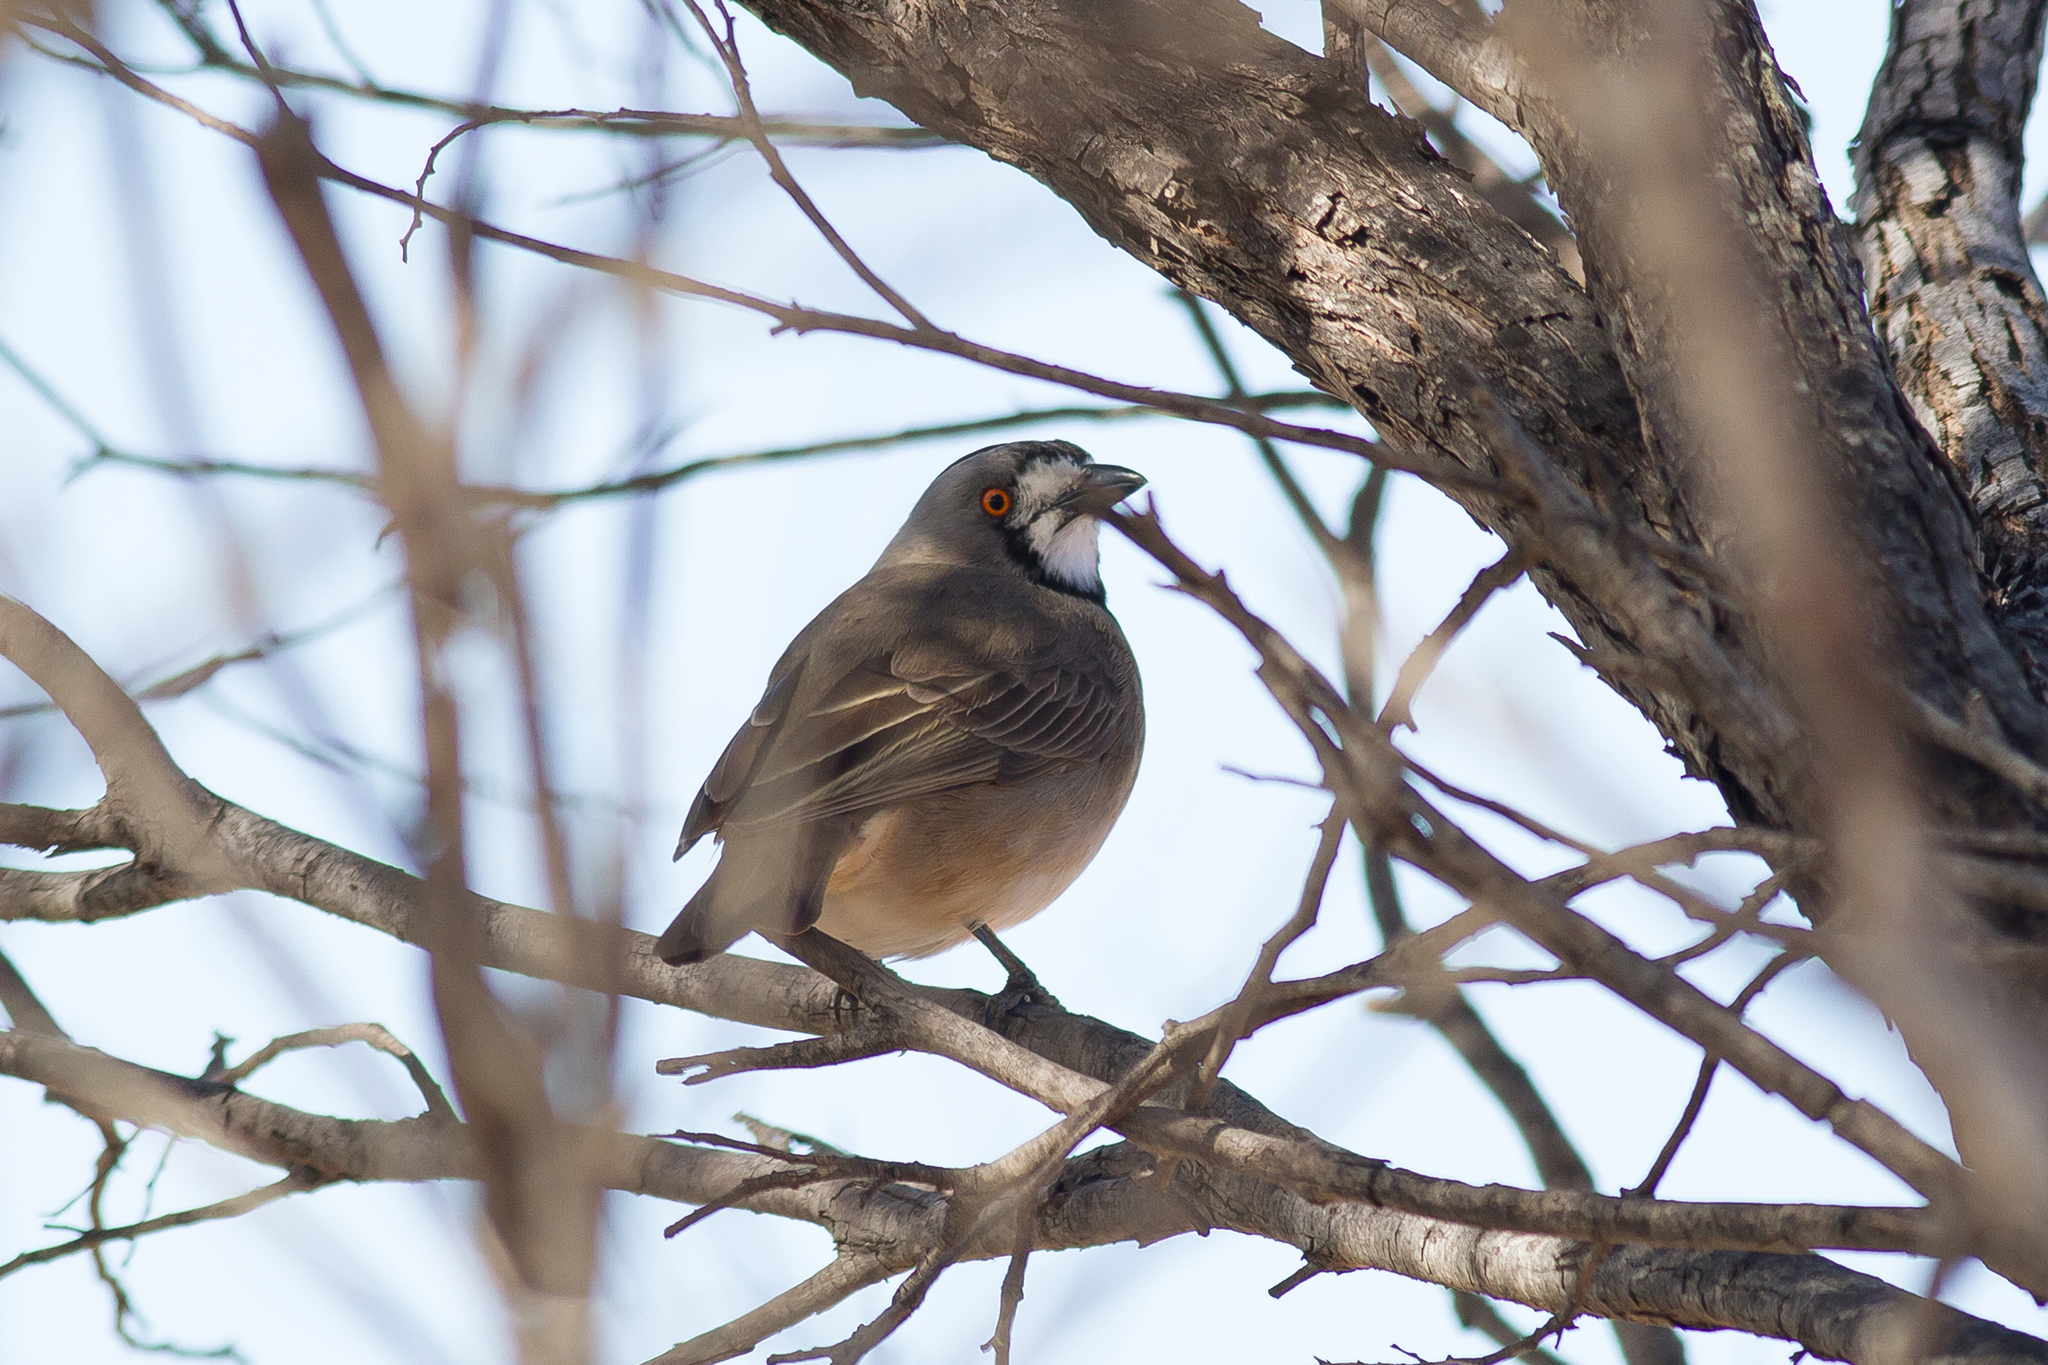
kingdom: Animalia
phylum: Chordata
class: Aves
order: Passeriformes
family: Oreoicidae
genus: Oreoica
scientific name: Oreoica gutturalis
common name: Crested bellbird
